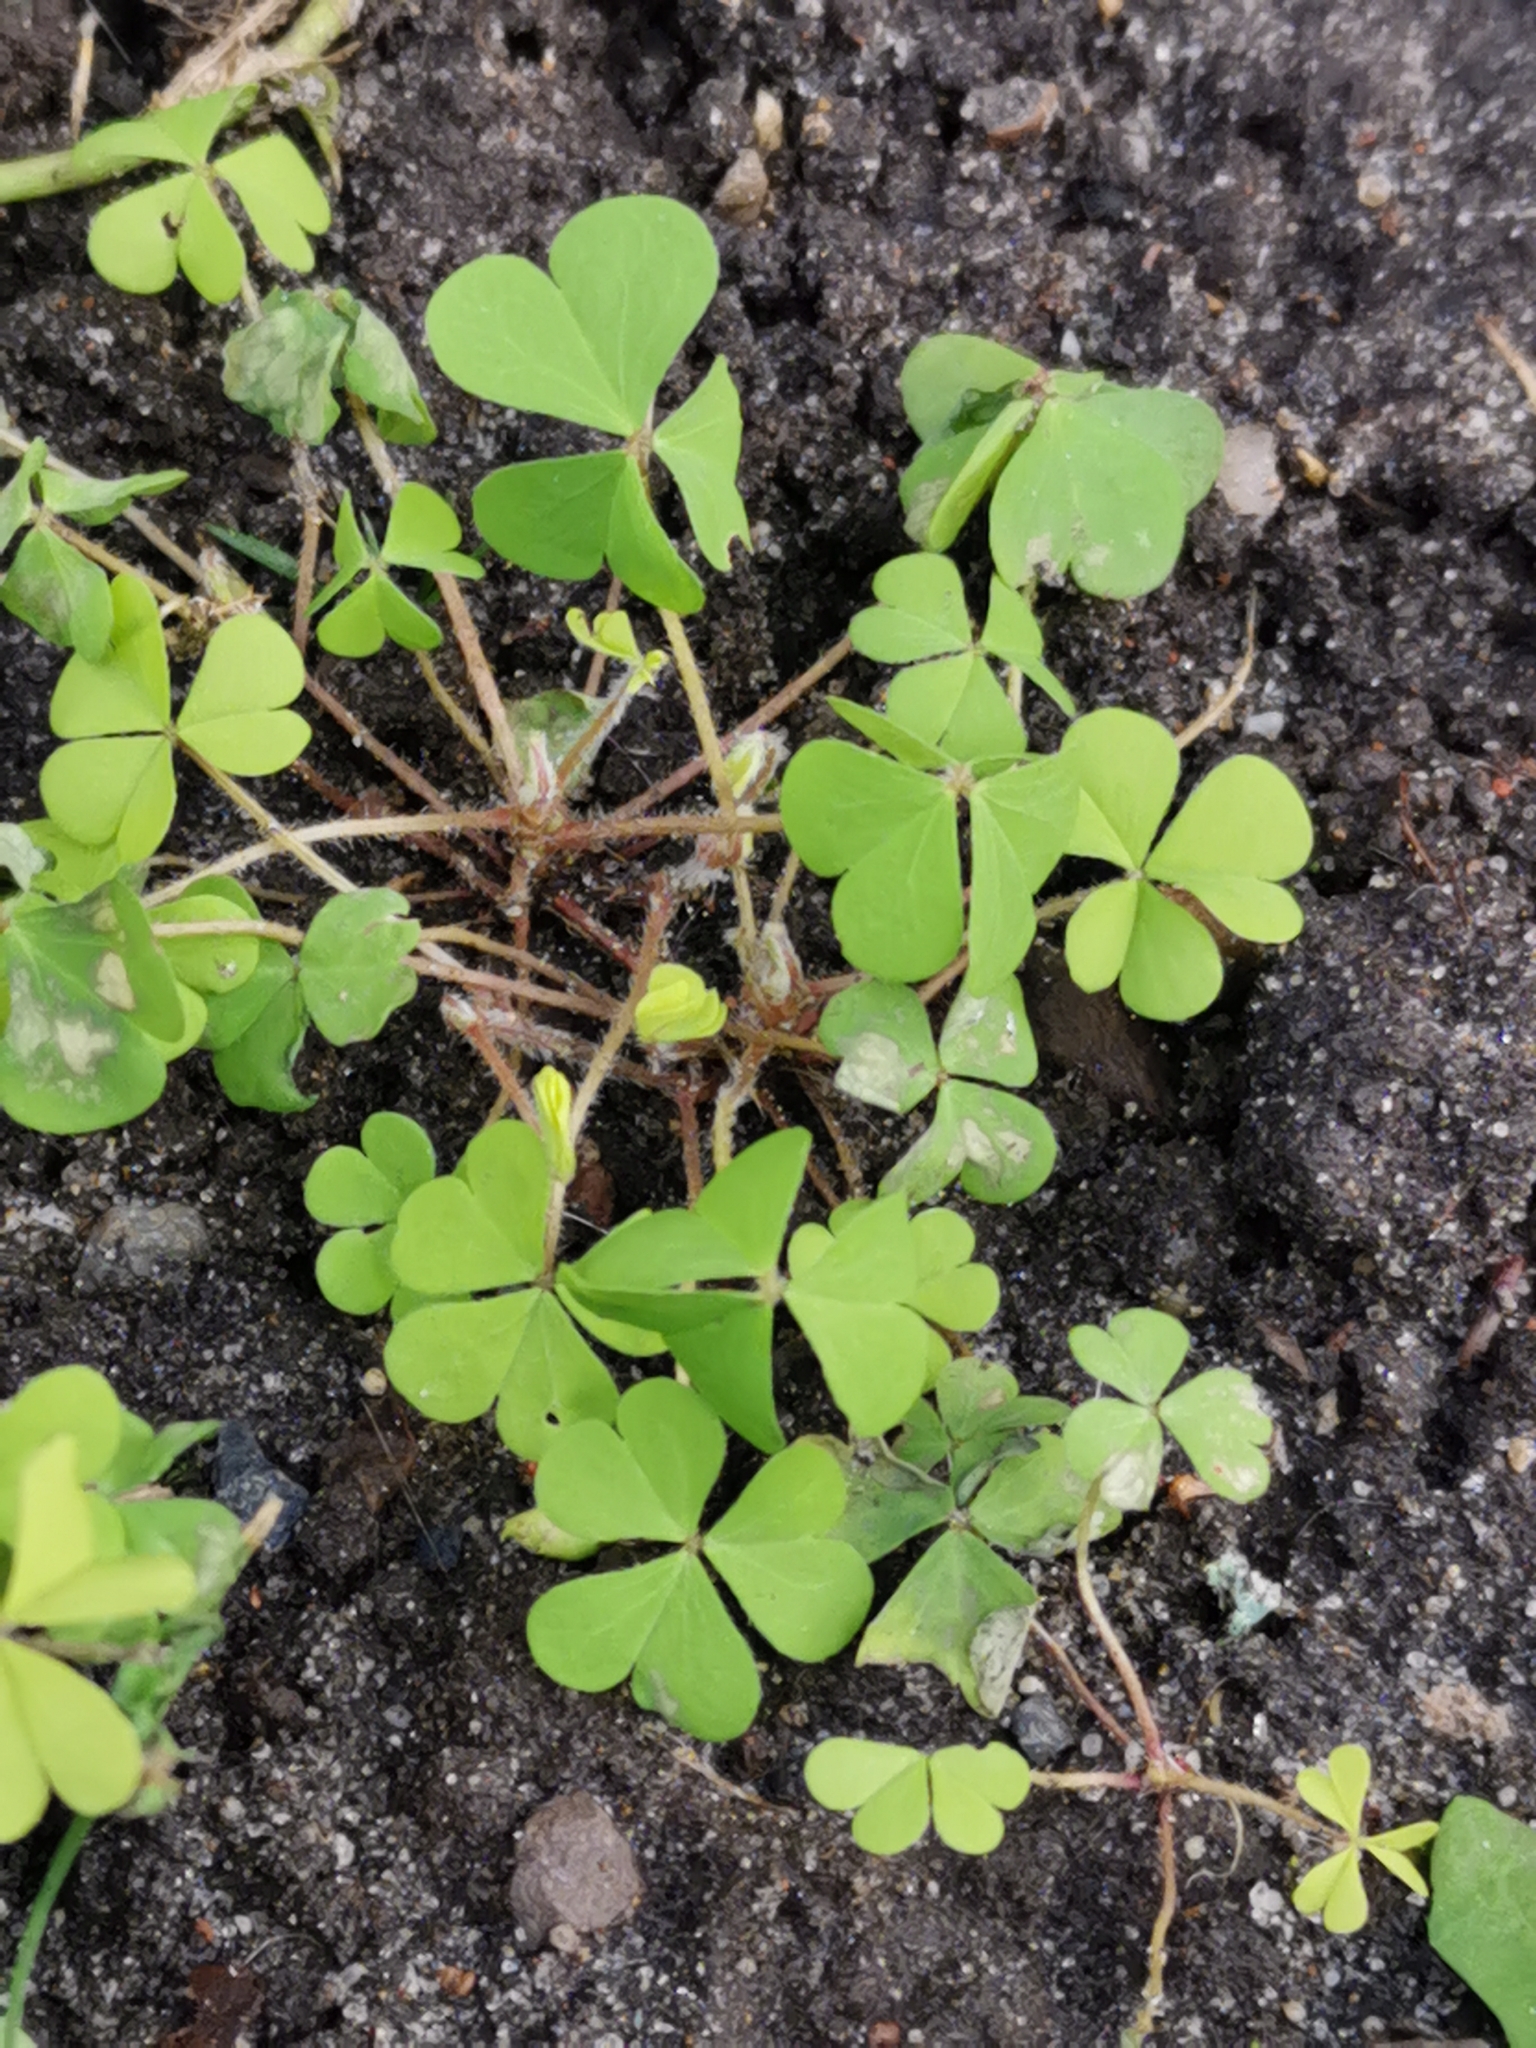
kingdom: Plantae
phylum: Tracheophyta
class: Magnoliopsida
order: Oxalidales
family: Oxalidaceae
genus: Oxalis
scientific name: Oxalis corniculata
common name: Procumbent yellow-sorrel
